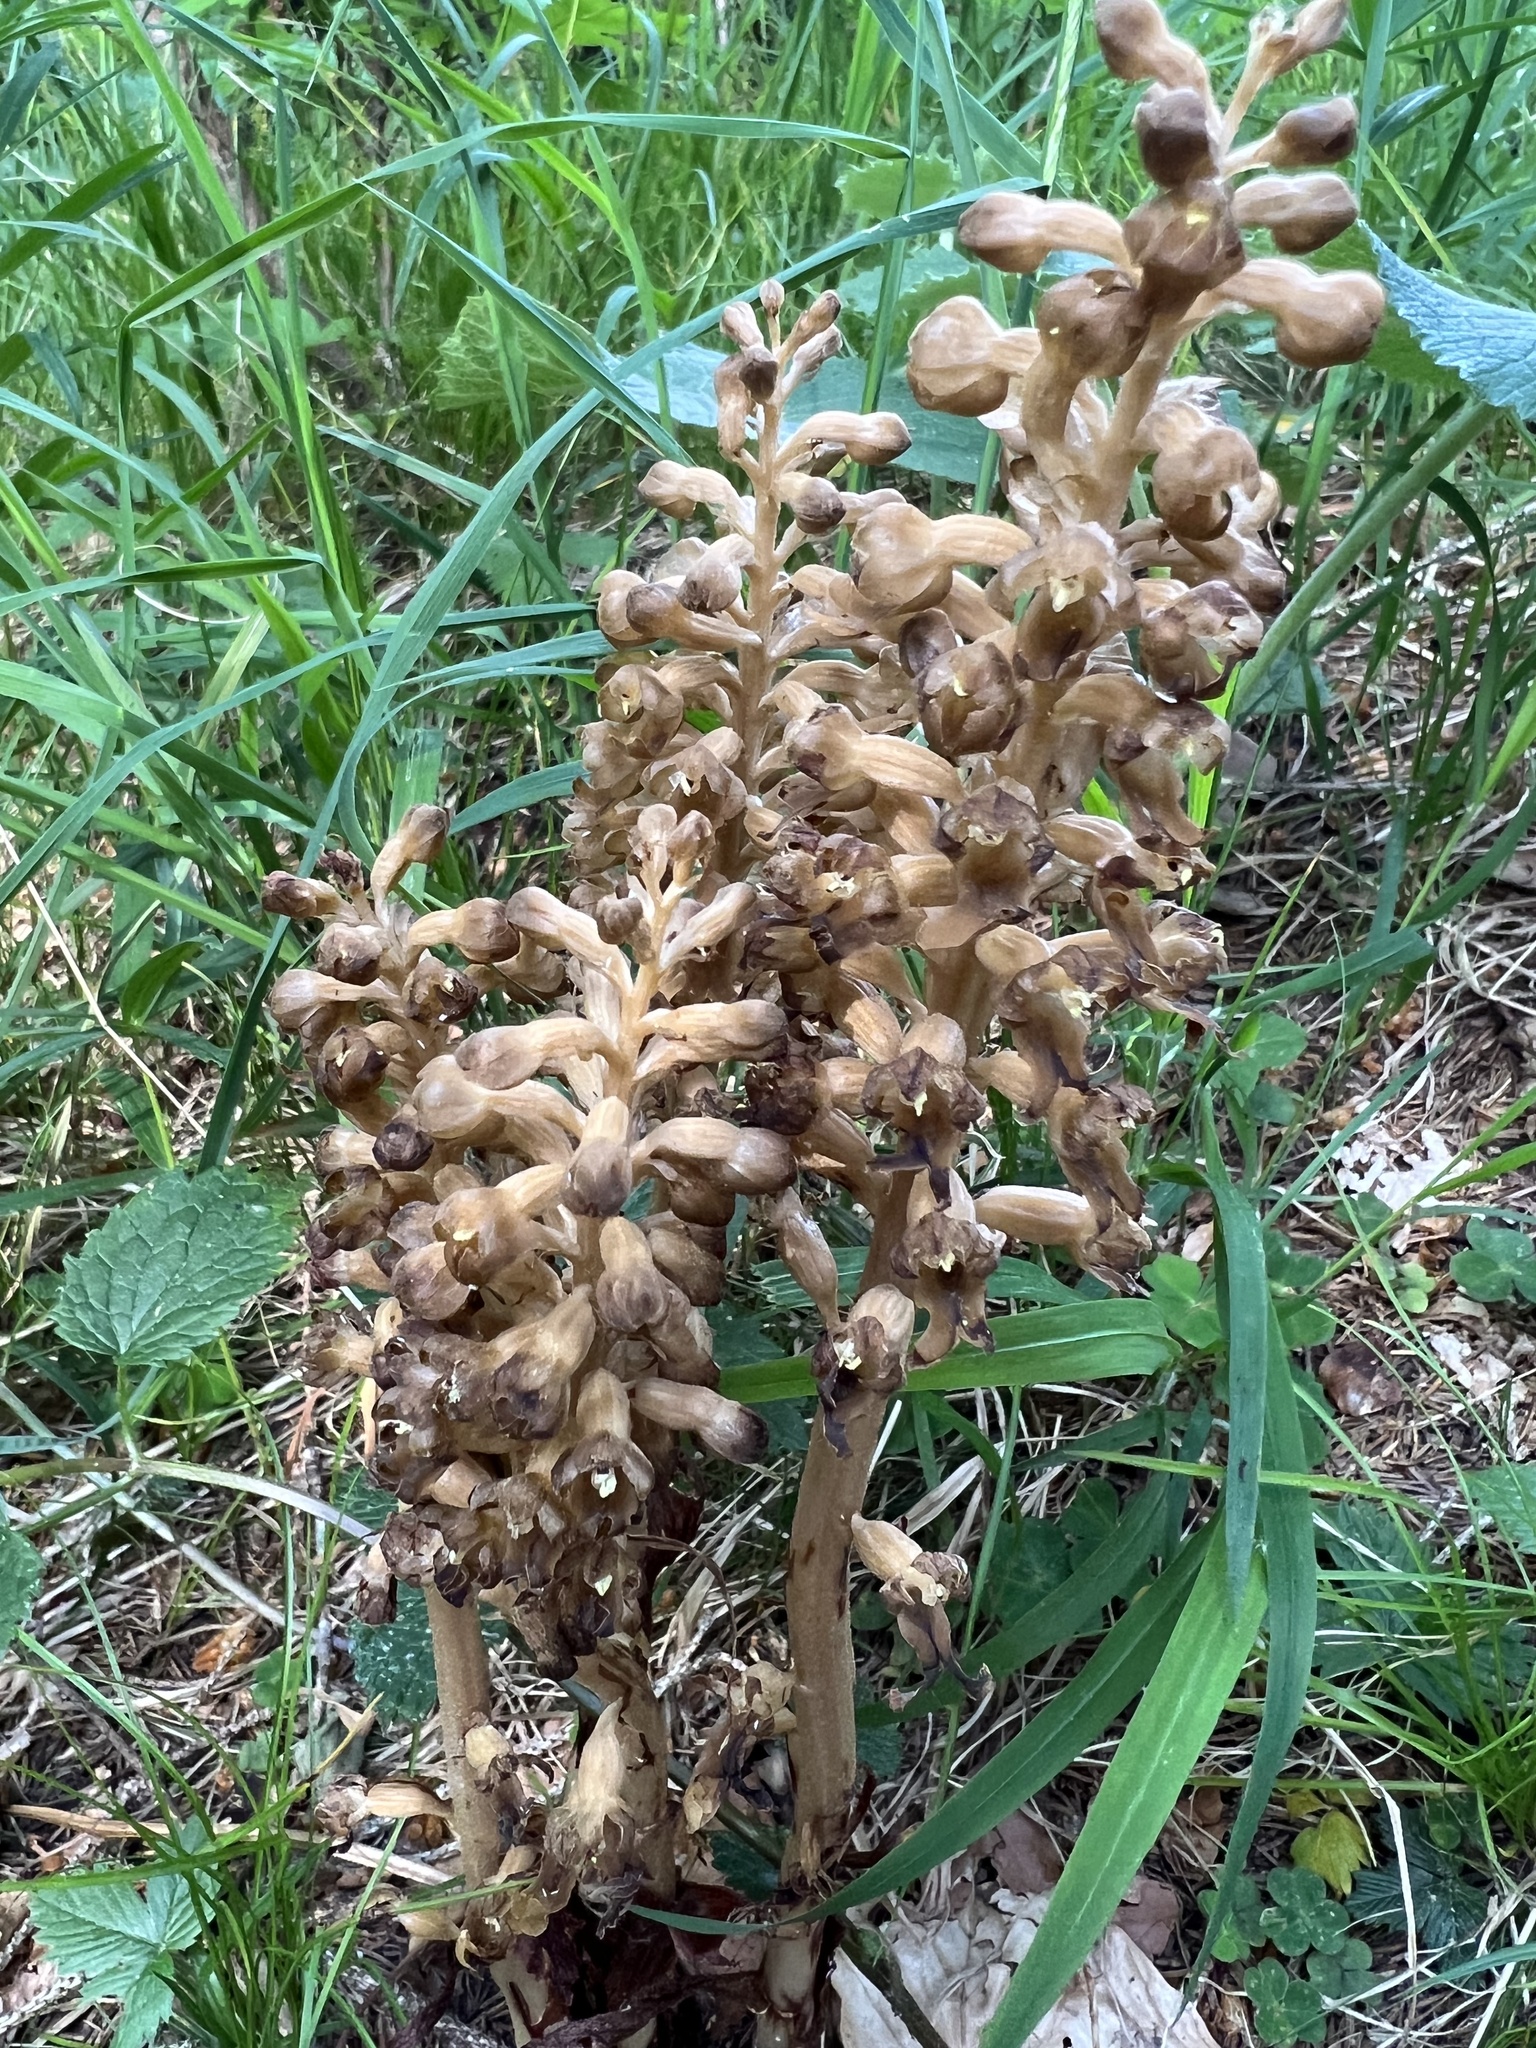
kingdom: Plantae
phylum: Tracheophyta
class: Liliopsida
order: Asparagales
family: Orchidaceae
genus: Neottia
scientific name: Neottia nidus-avis
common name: Bird's-nest orchid
